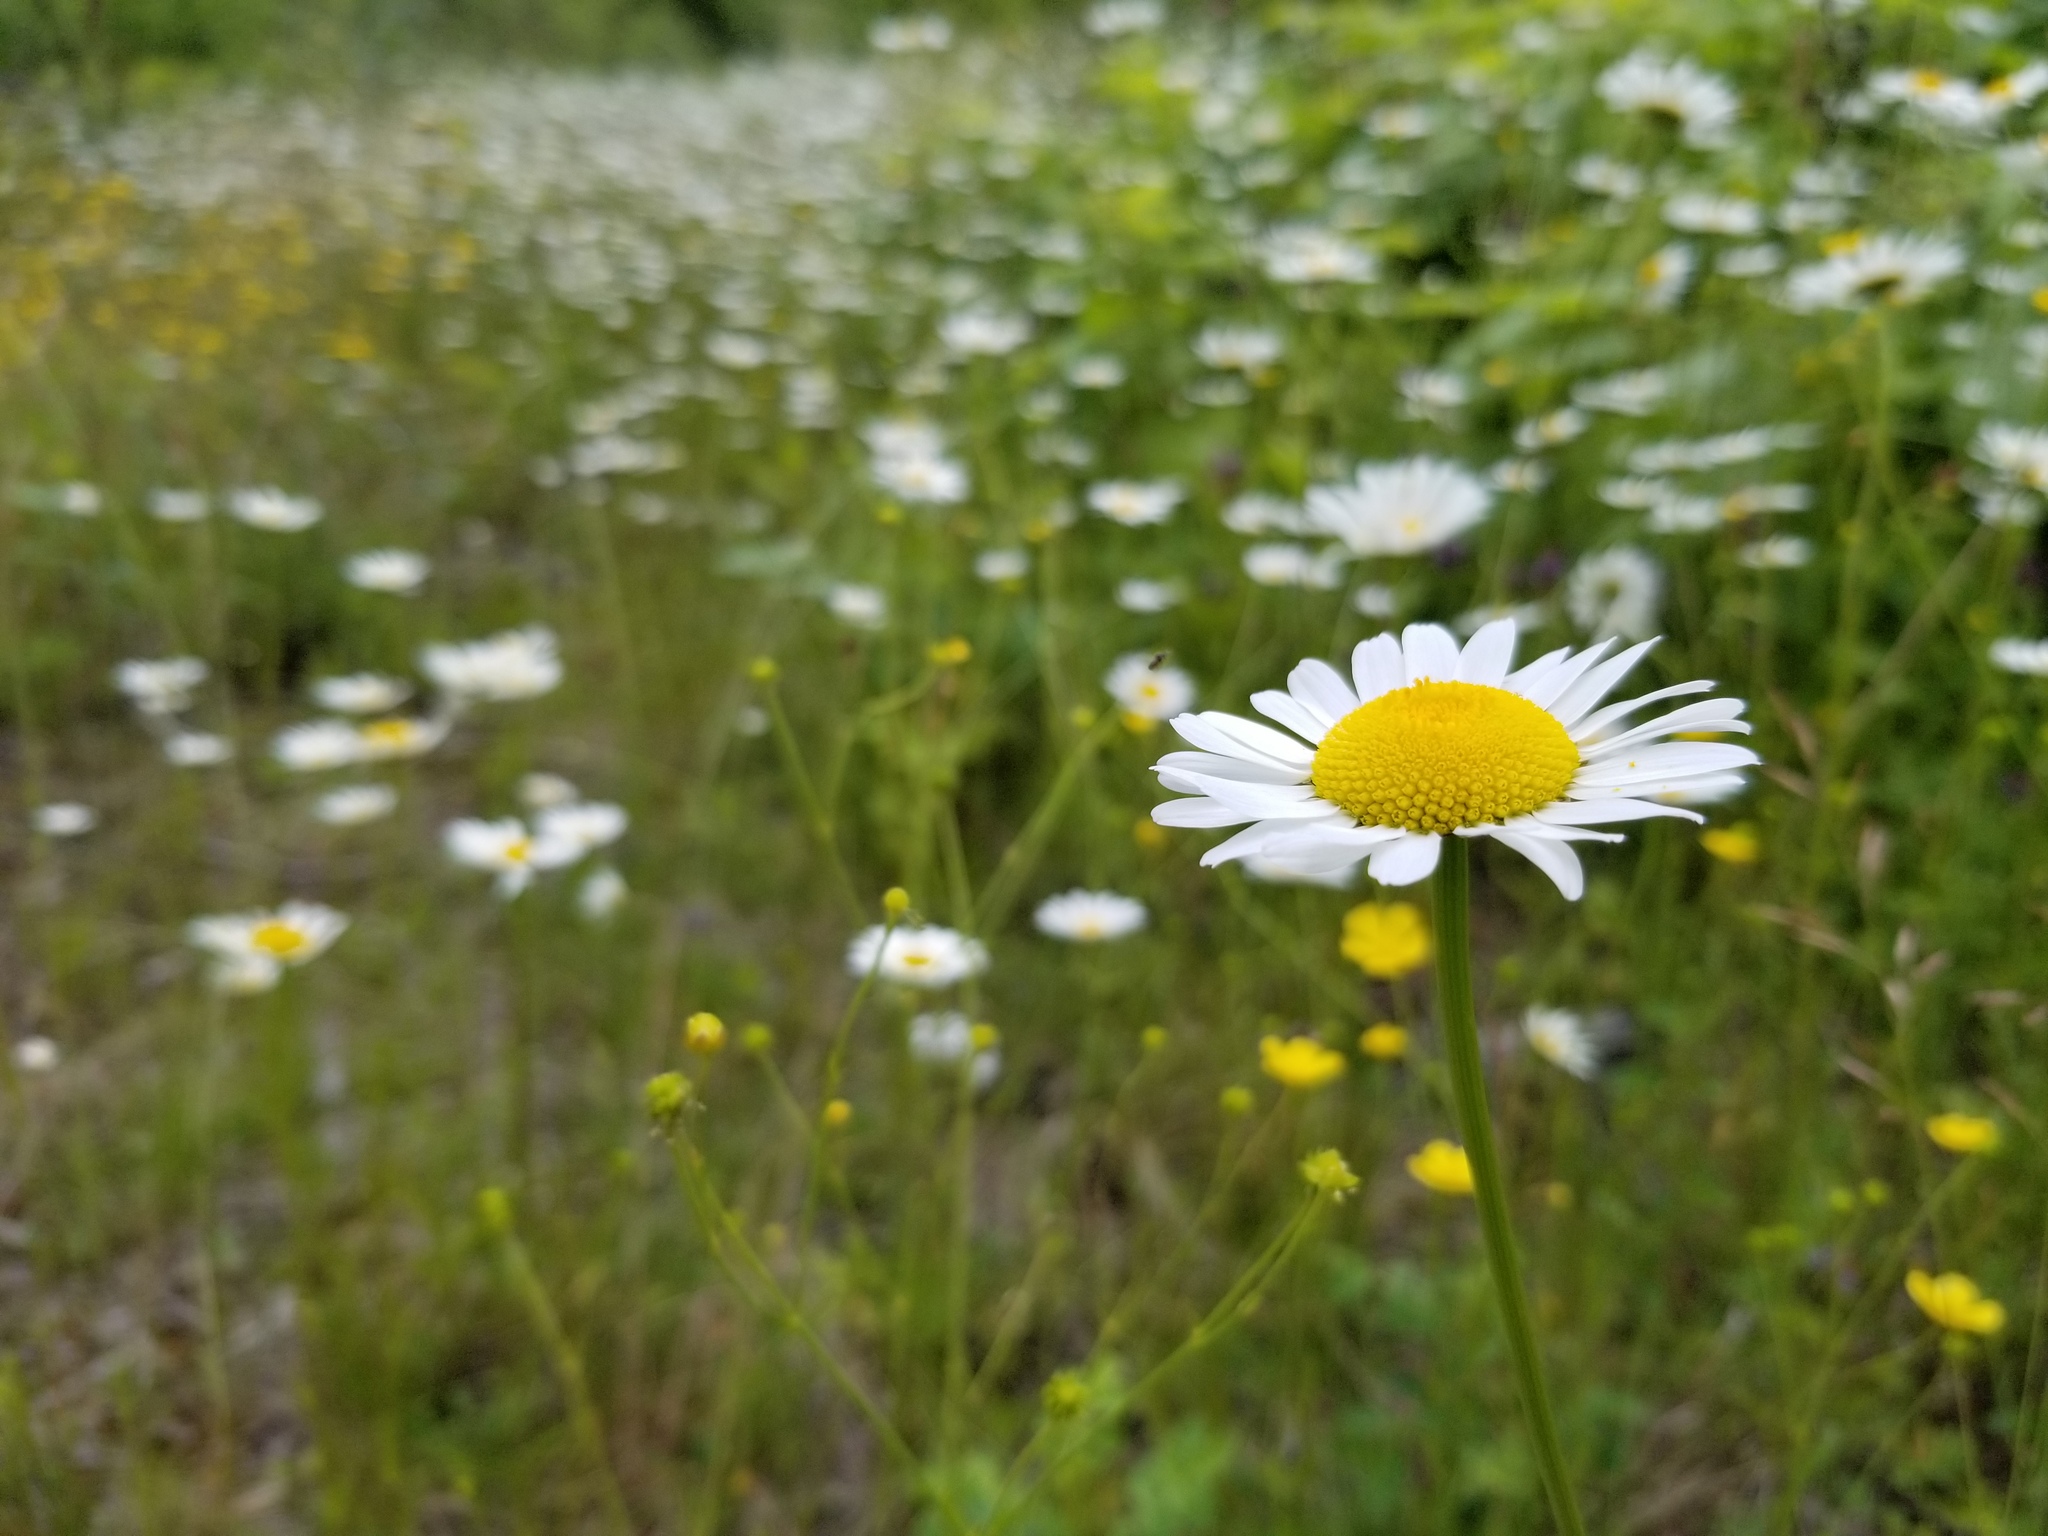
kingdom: Plantae
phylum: Tracheophyta
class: Magnoliopsida
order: Asterales
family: Asteraceae
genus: Leucanthemum
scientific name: Leucanthemum vulgare
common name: Oxeye daisy
